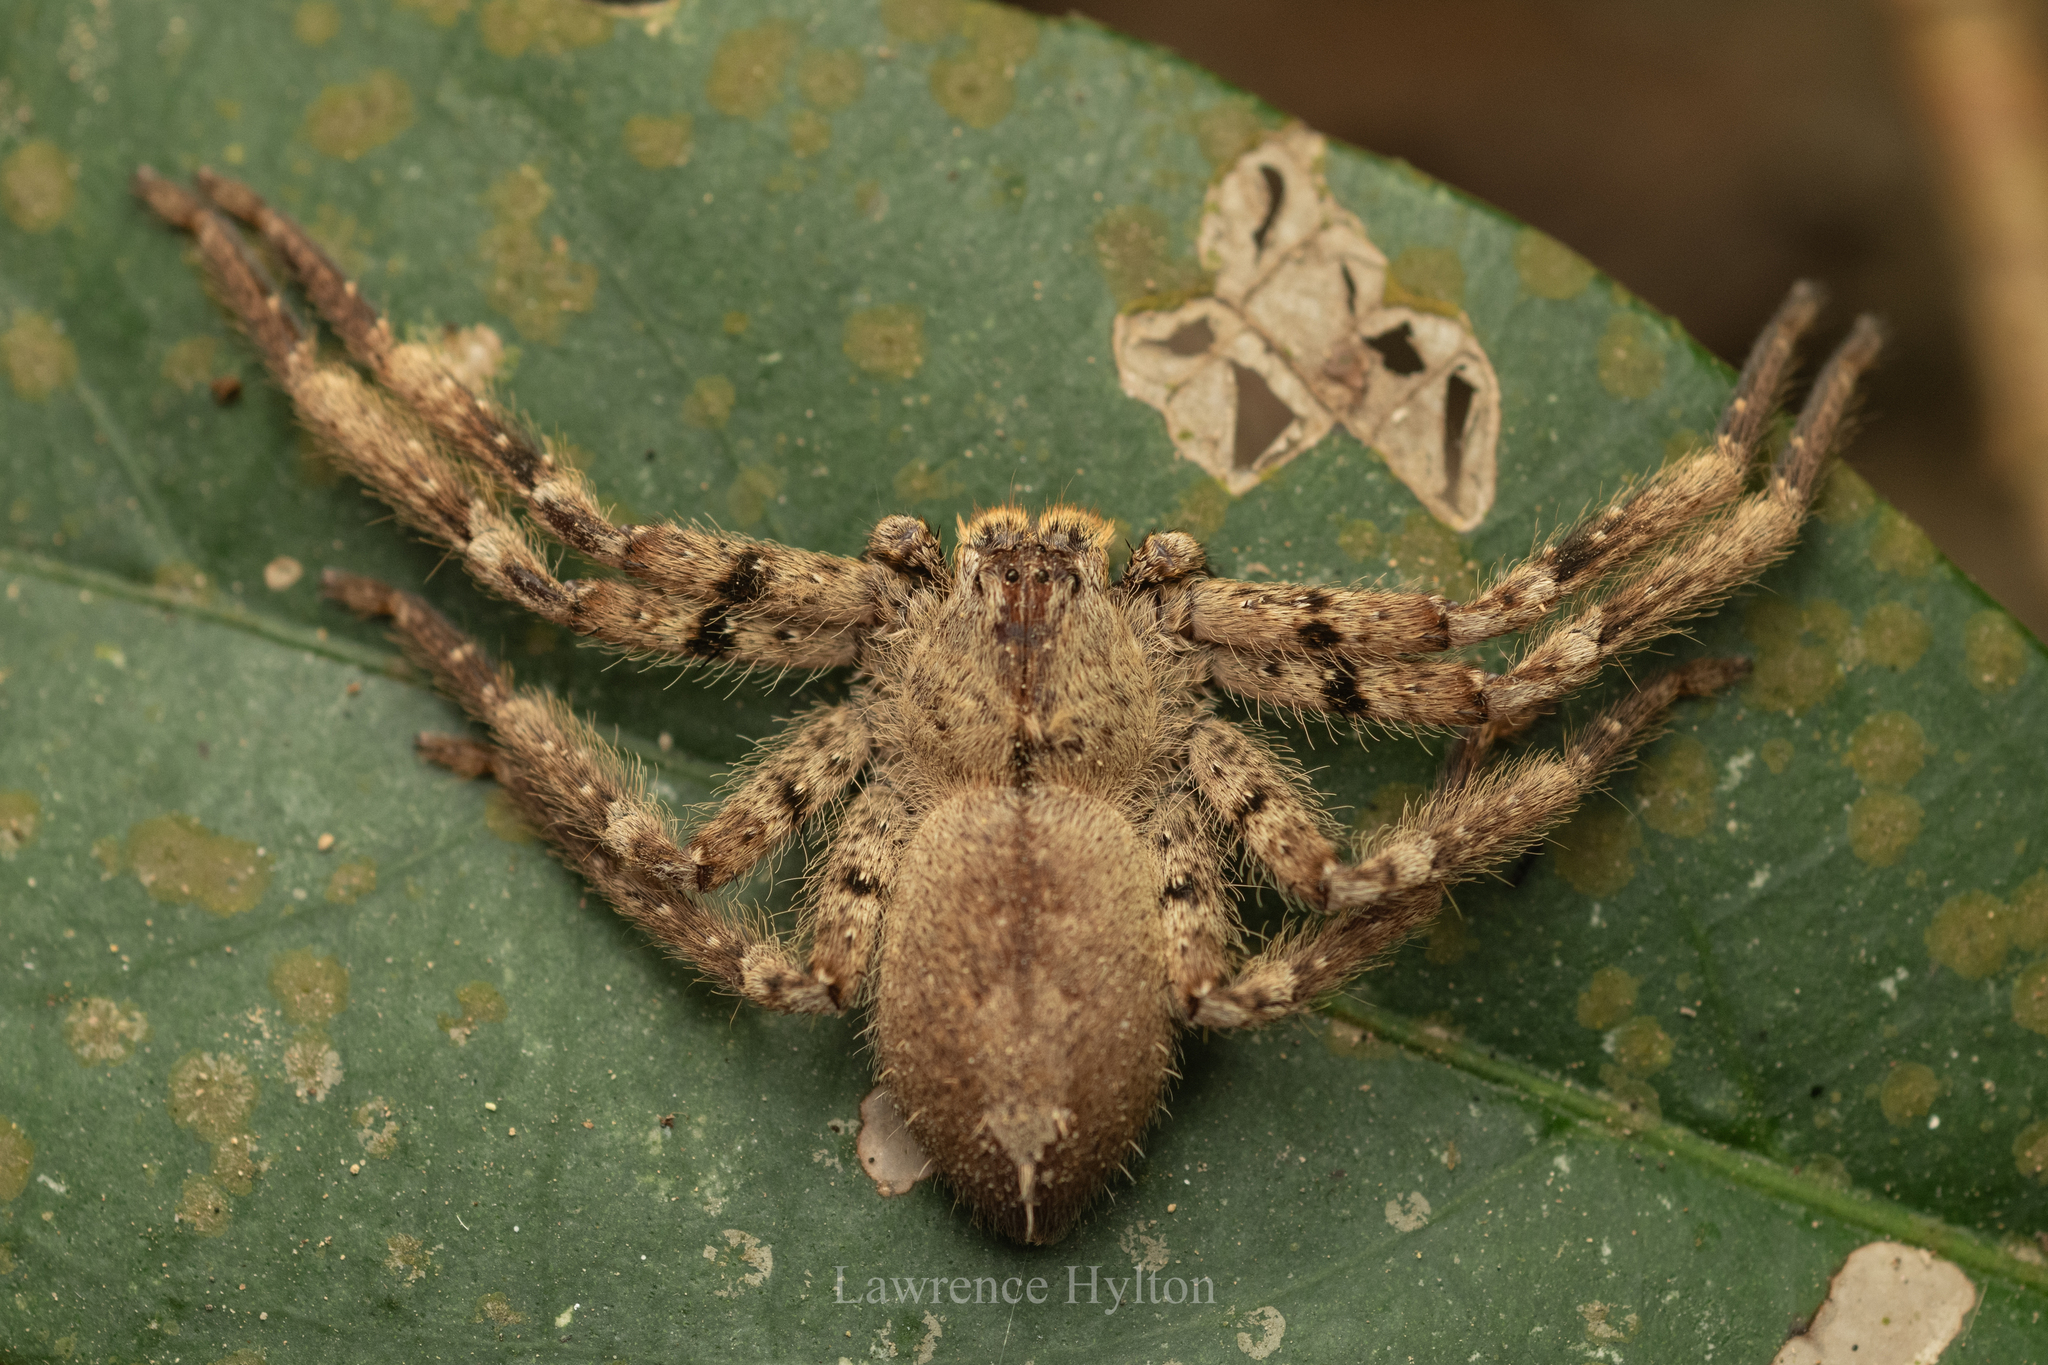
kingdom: Animalia
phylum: Arthropoda
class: Arachnida
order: Araneae
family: Sparassidae
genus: Heteropoda
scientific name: Heteropoda pingtungensis
